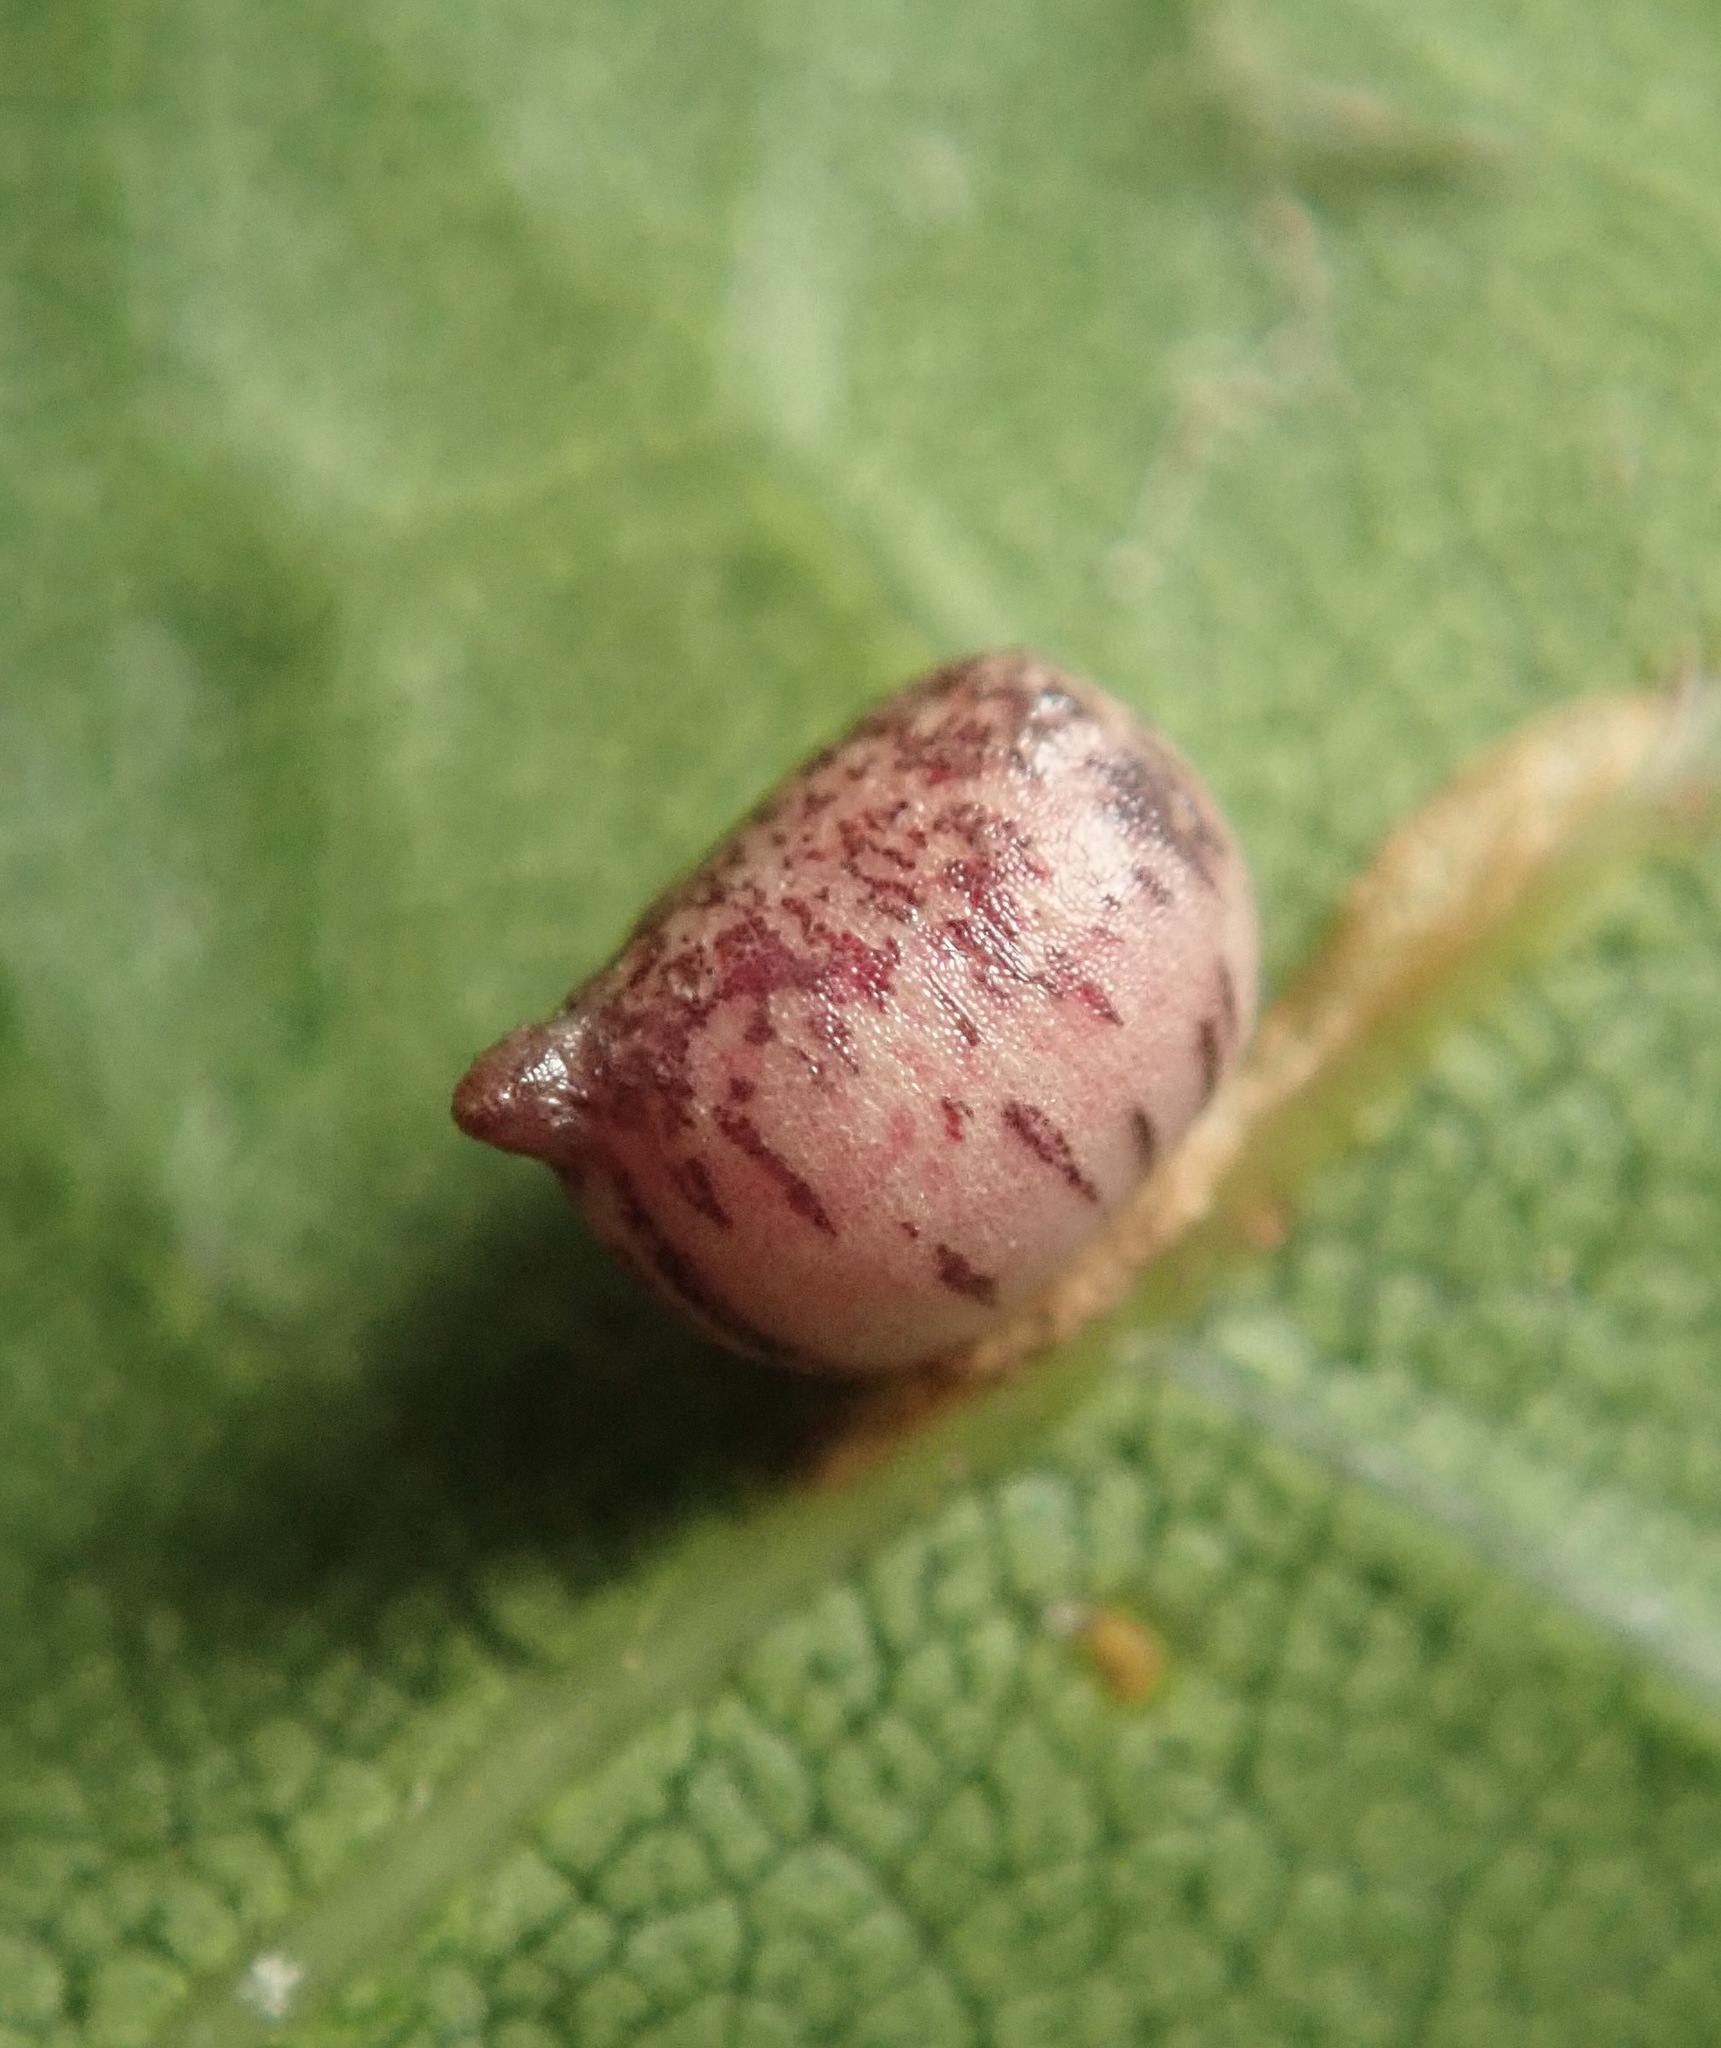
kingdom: Animalia
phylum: Arthropoda
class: Insecta
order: Hymenoptera
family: Cynipidae
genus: Dryocosmus
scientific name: Dryocosmus
